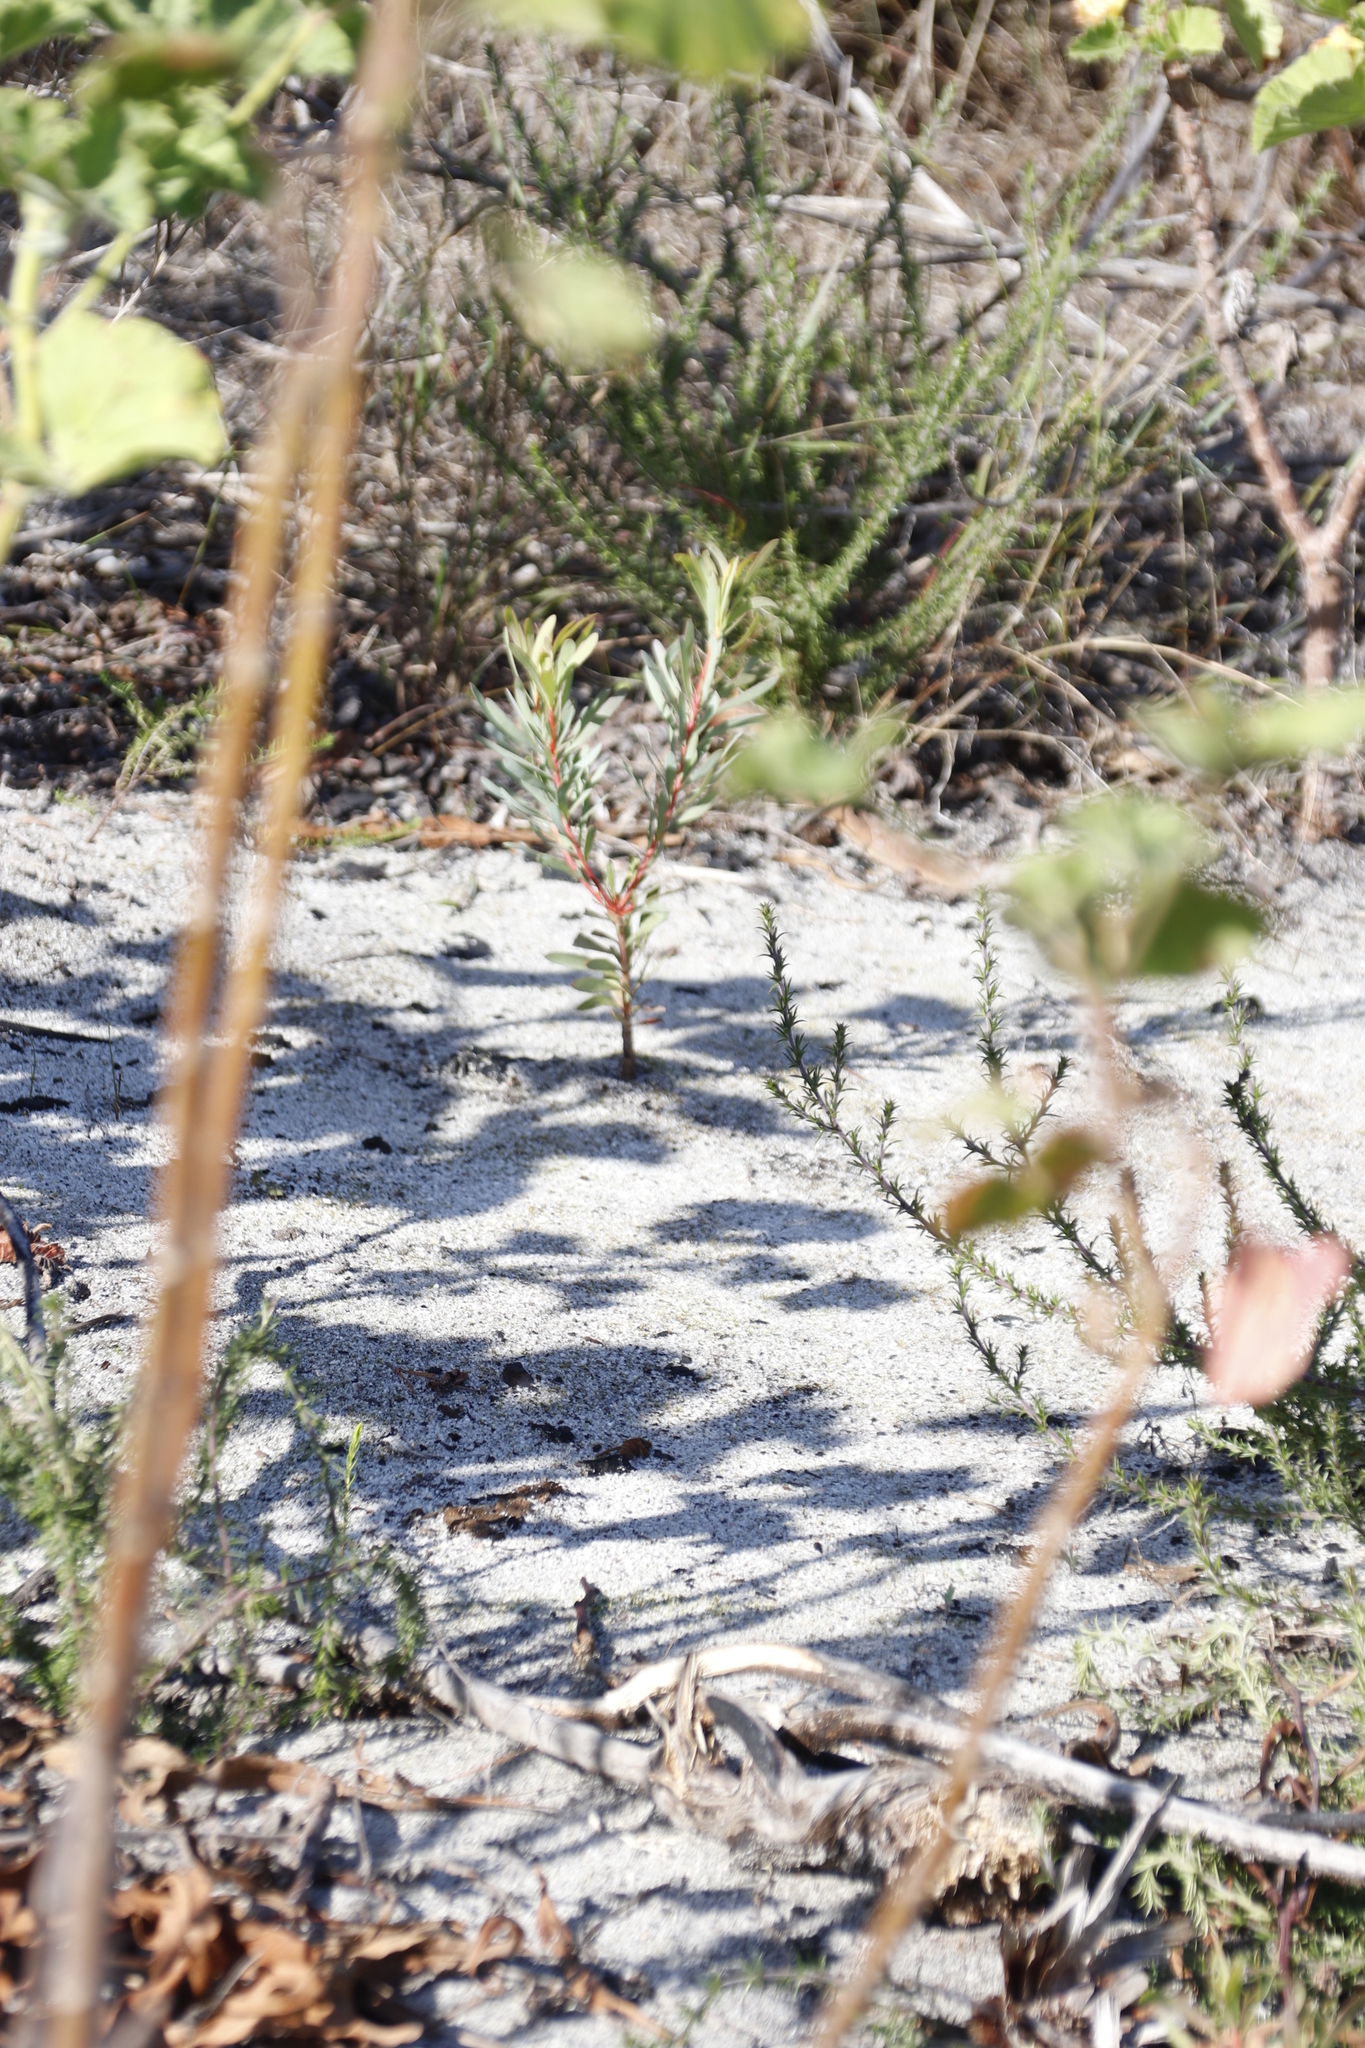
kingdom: Plantae
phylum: Tracheophyta
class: Magnoliopsida
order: Proteales
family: Proteaceae
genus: Protea
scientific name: Protea repens
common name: Sugarbush
